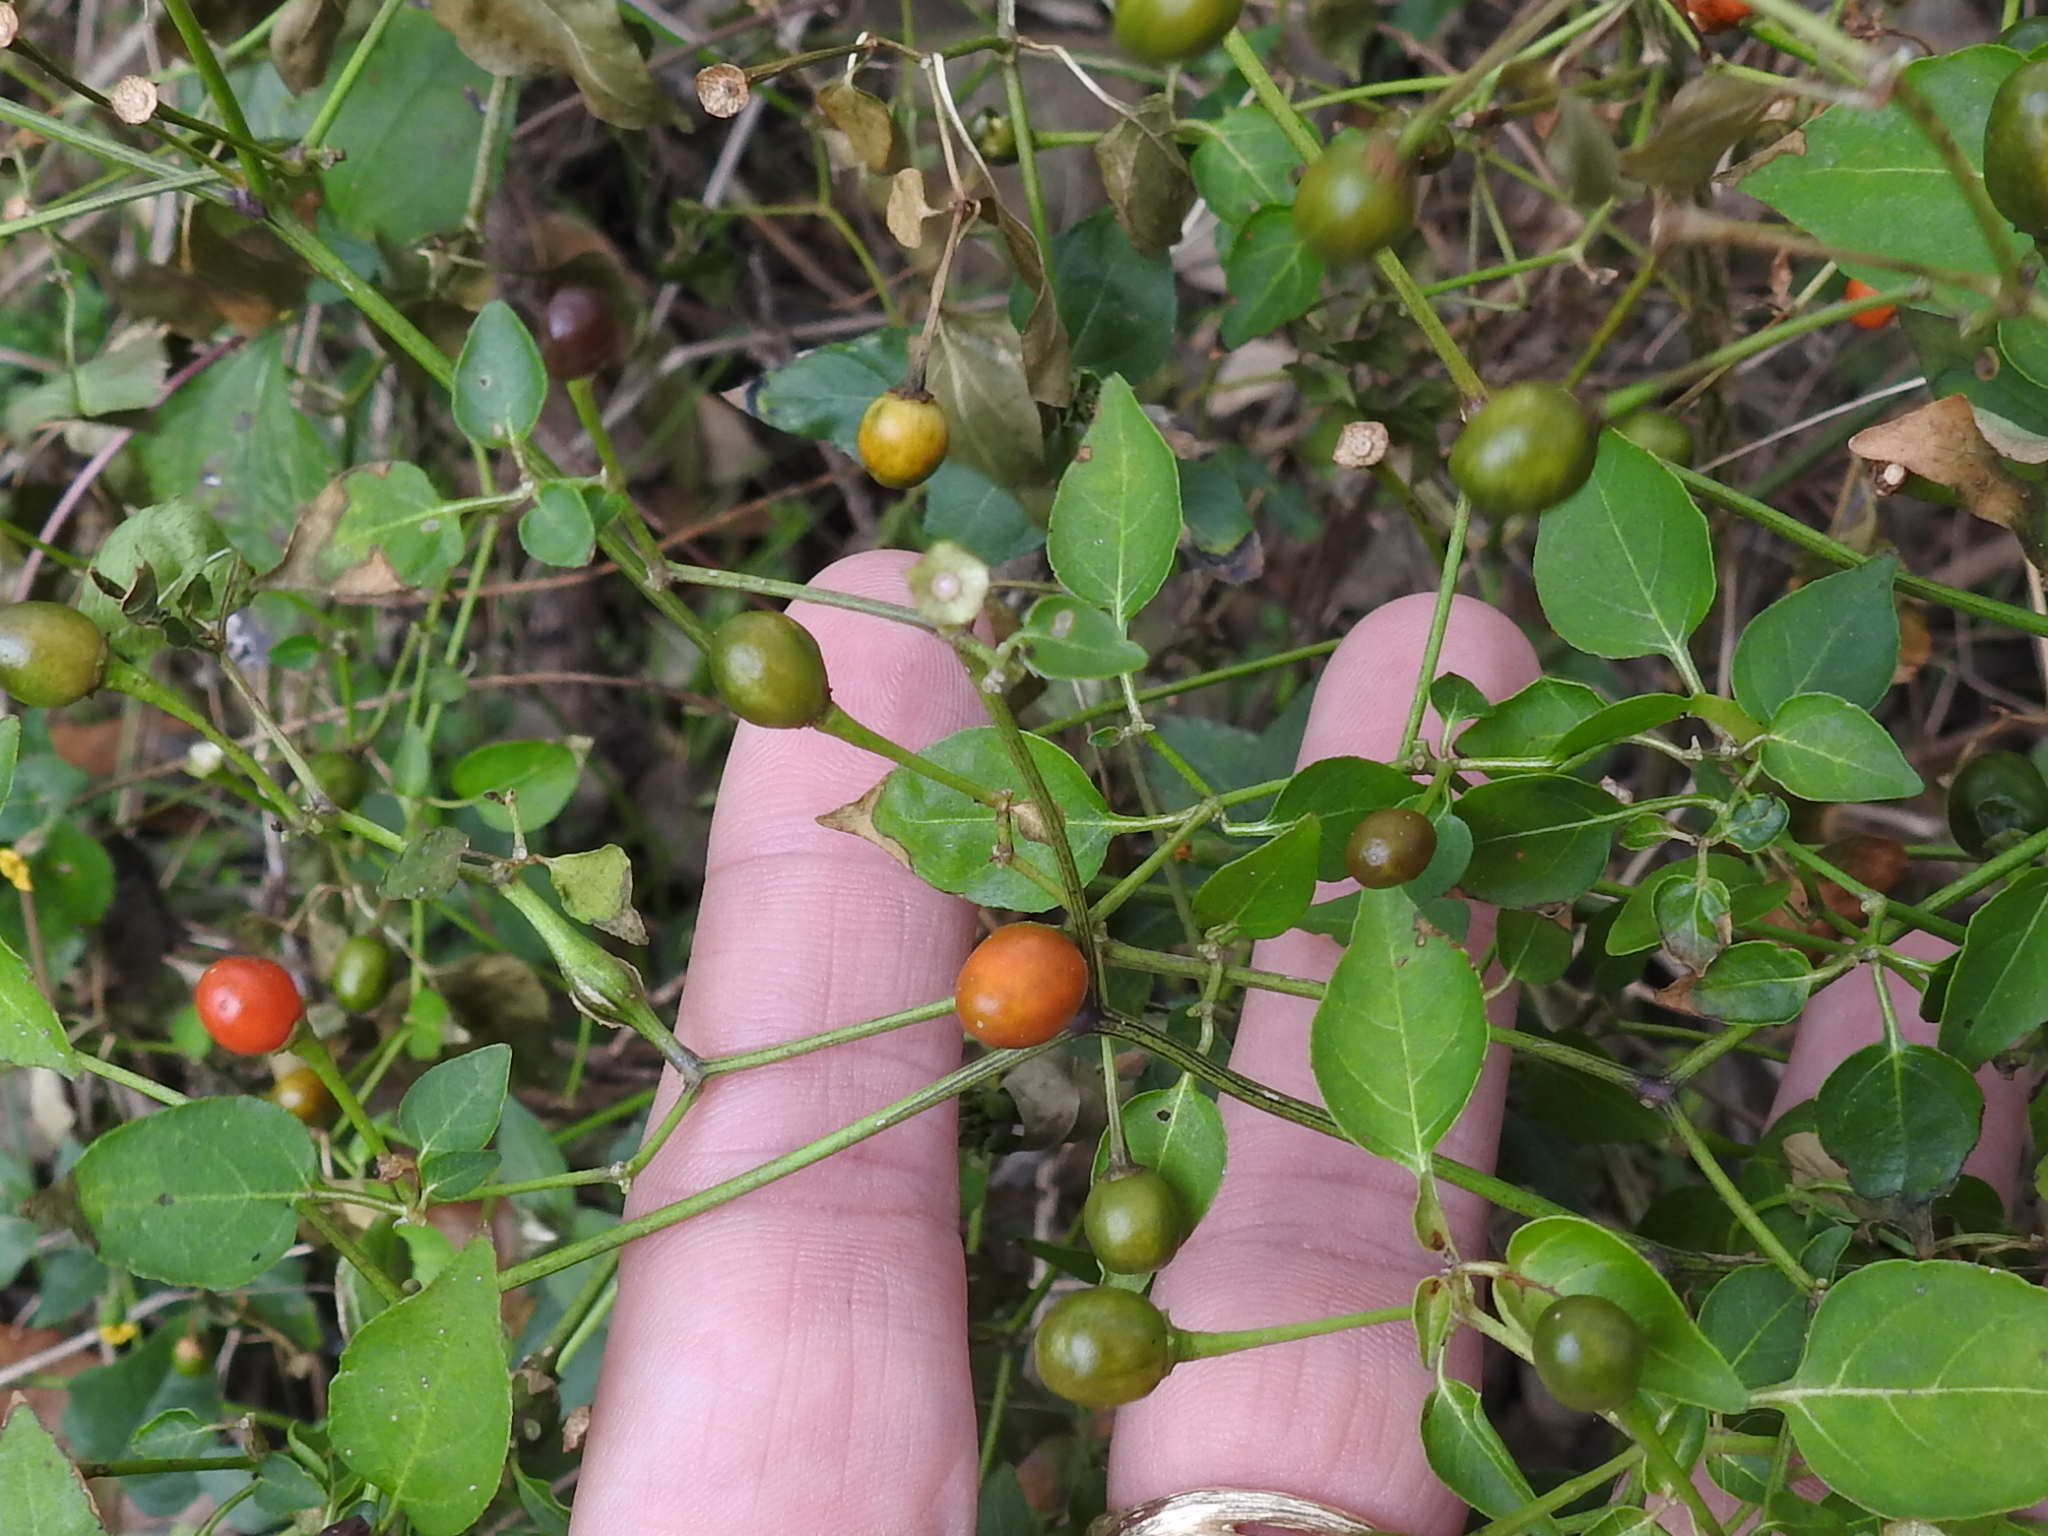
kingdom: Plantae
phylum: Tracheophyta
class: Magnoliopsida
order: Solanales
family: Solanaceae
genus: Capsicum
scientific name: Capsicum annuum
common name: Sweet pepper
